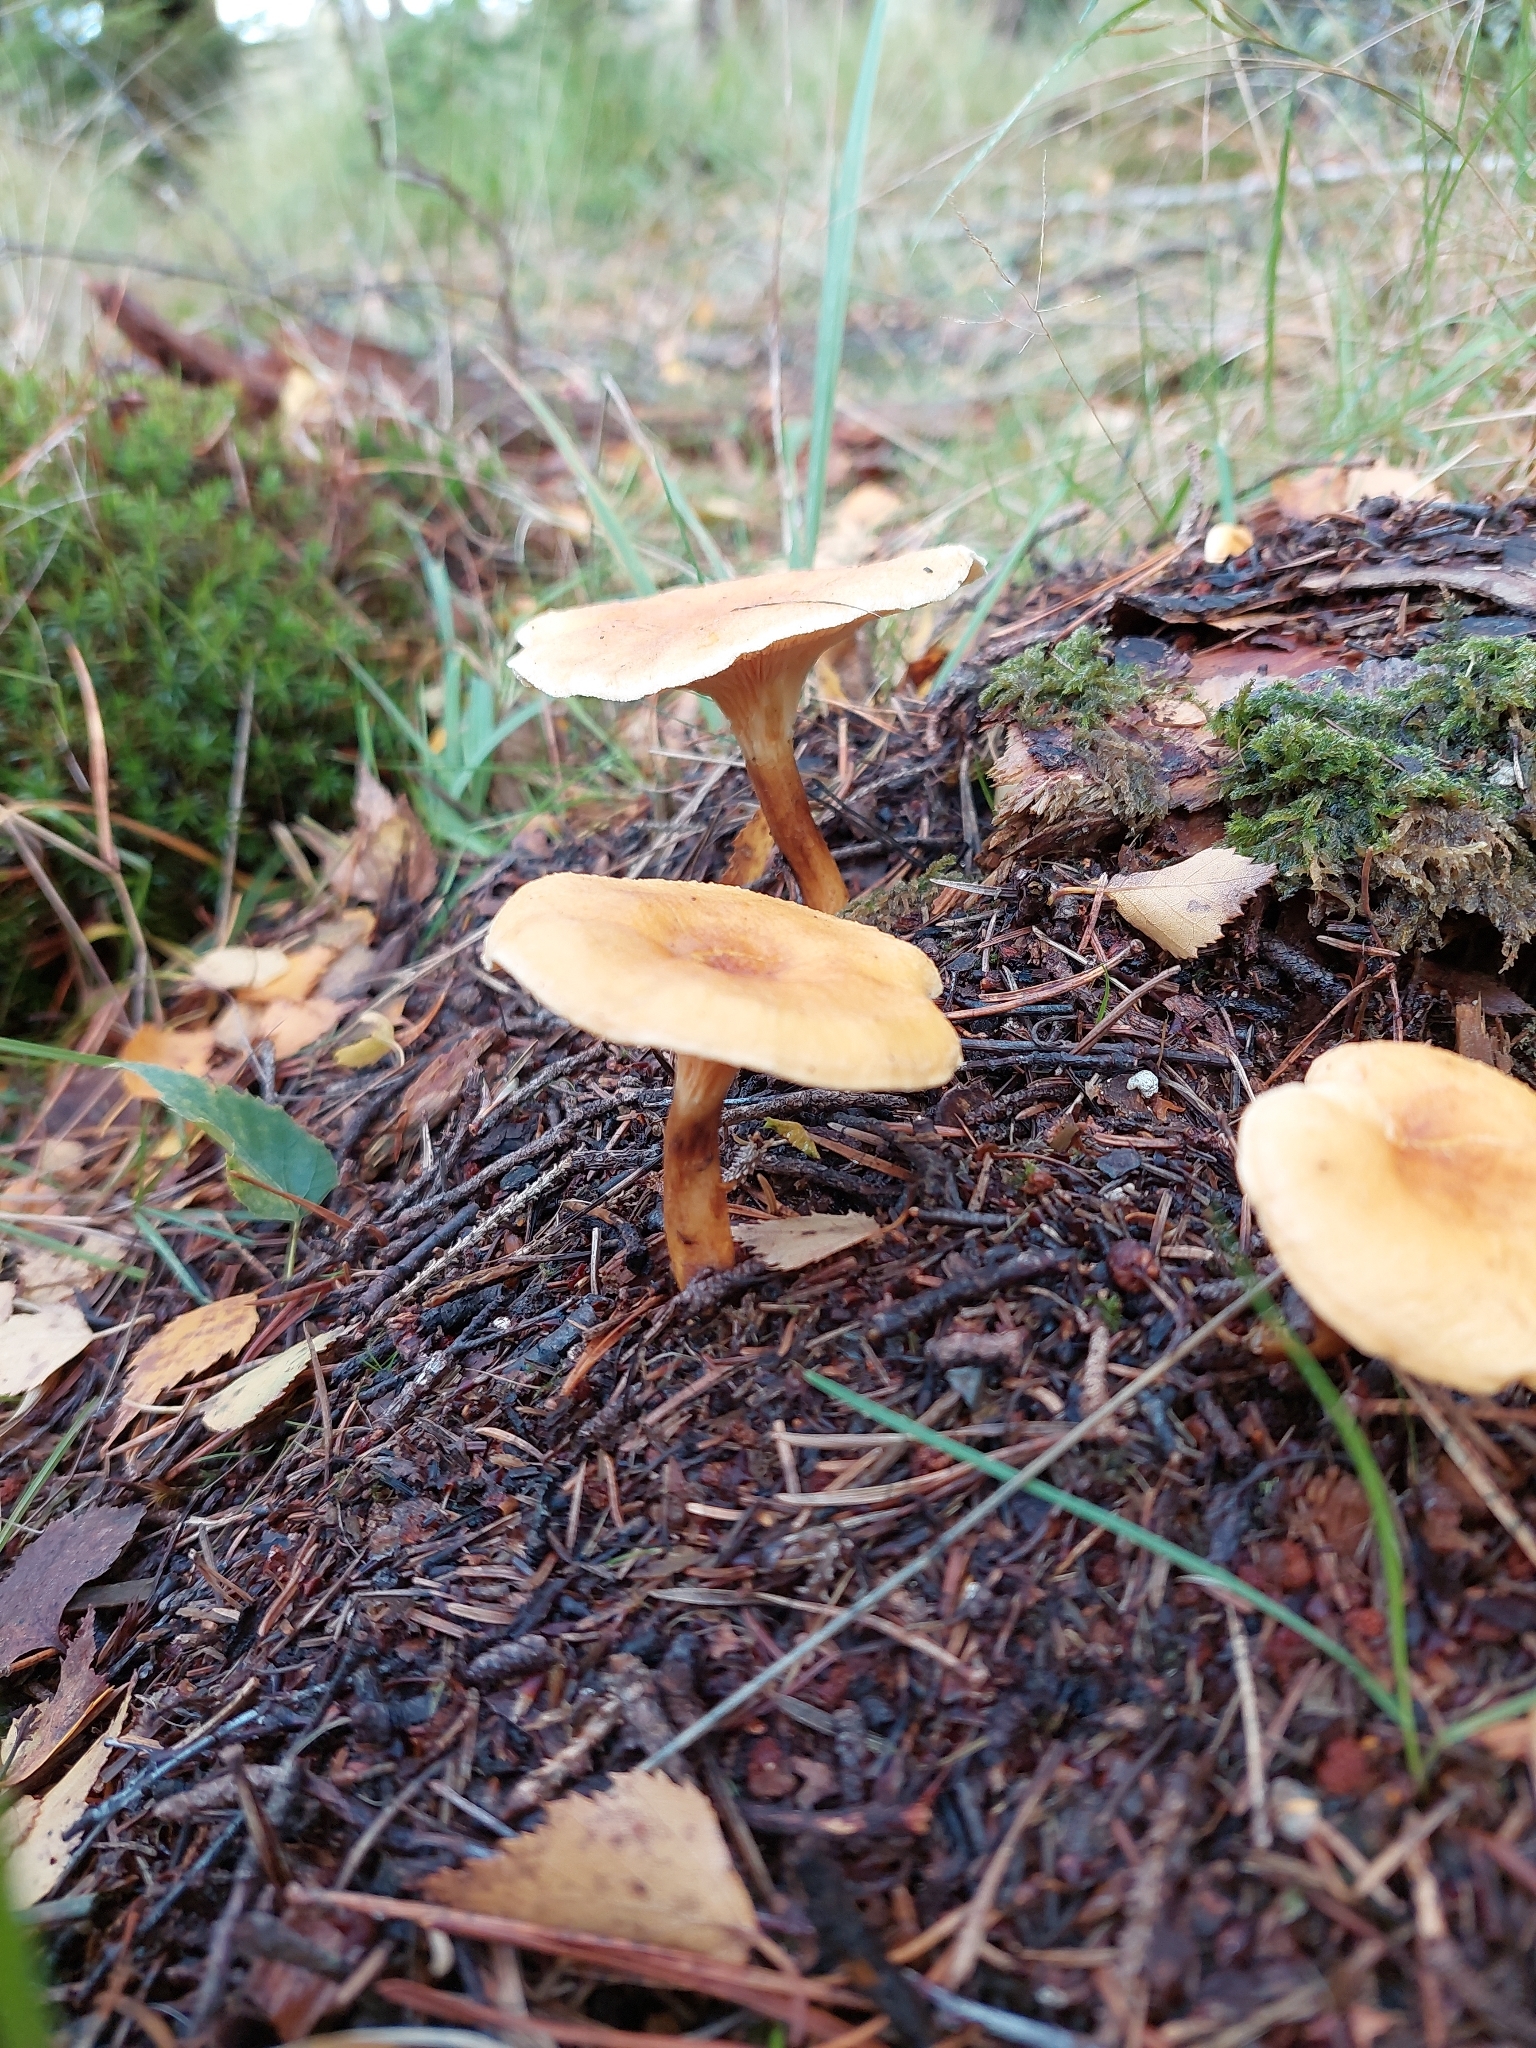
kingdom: Fungi
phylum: Basidiomycota
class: Agaricomycetes
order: Boletales
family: Hygrophoropsidaceae
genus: Hygrophoropsis
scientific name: Hygrophoropsis aurantiaca
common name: False chanterelle
